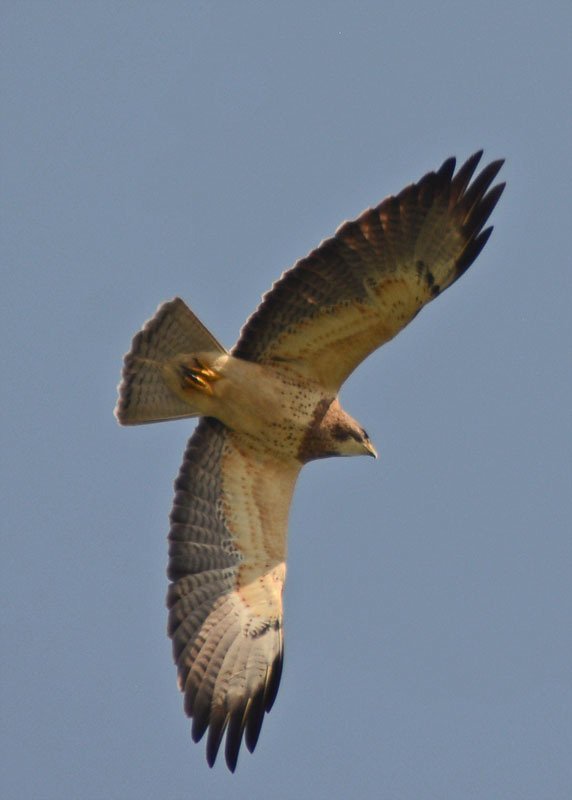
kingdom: Animalia
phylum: Chordata
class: Aves
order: Accipitriformes
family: Accipitridae
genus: Buteo
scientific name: Buteo swainsoni
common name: Swainson's hawk
